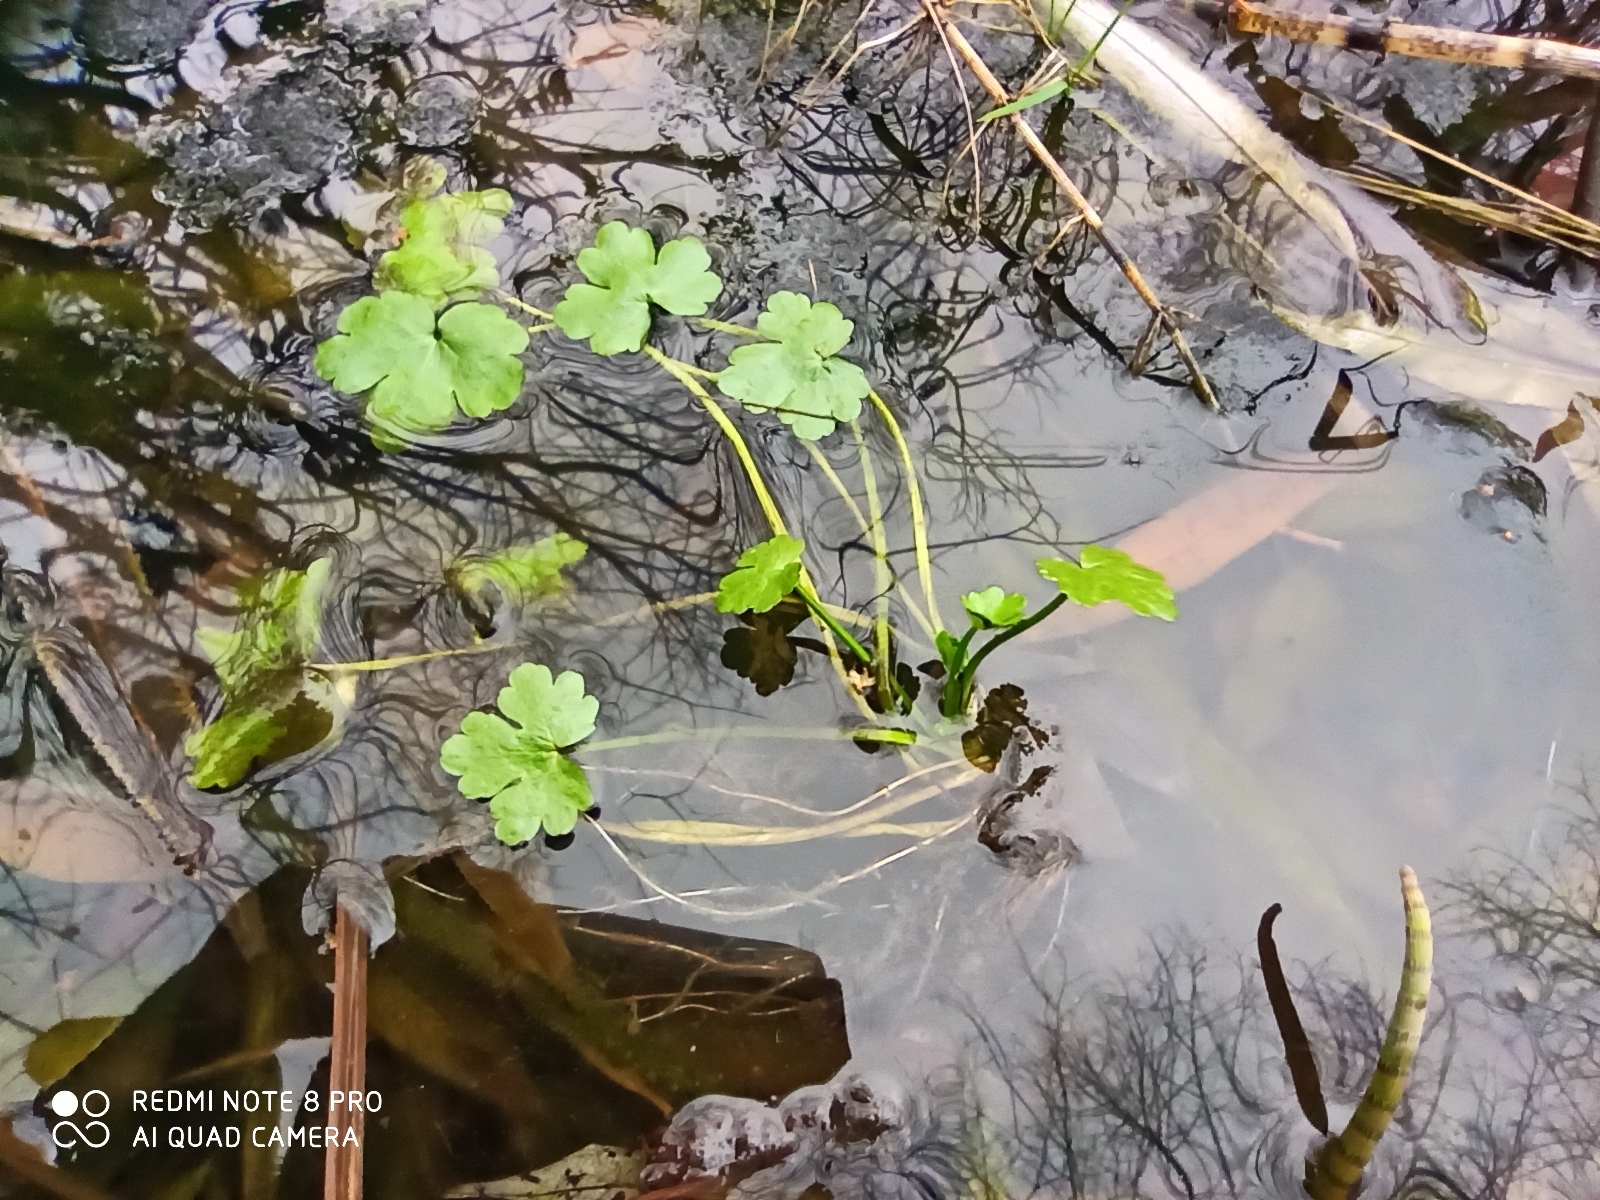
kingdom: Plantae
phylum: Tracheophyta
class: Magnoliopsida
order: Ranunculales
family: Ranunculaceae
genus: Ranunculus
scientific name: Ranunculus sceleratus
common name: Celery-leaved buttercup
